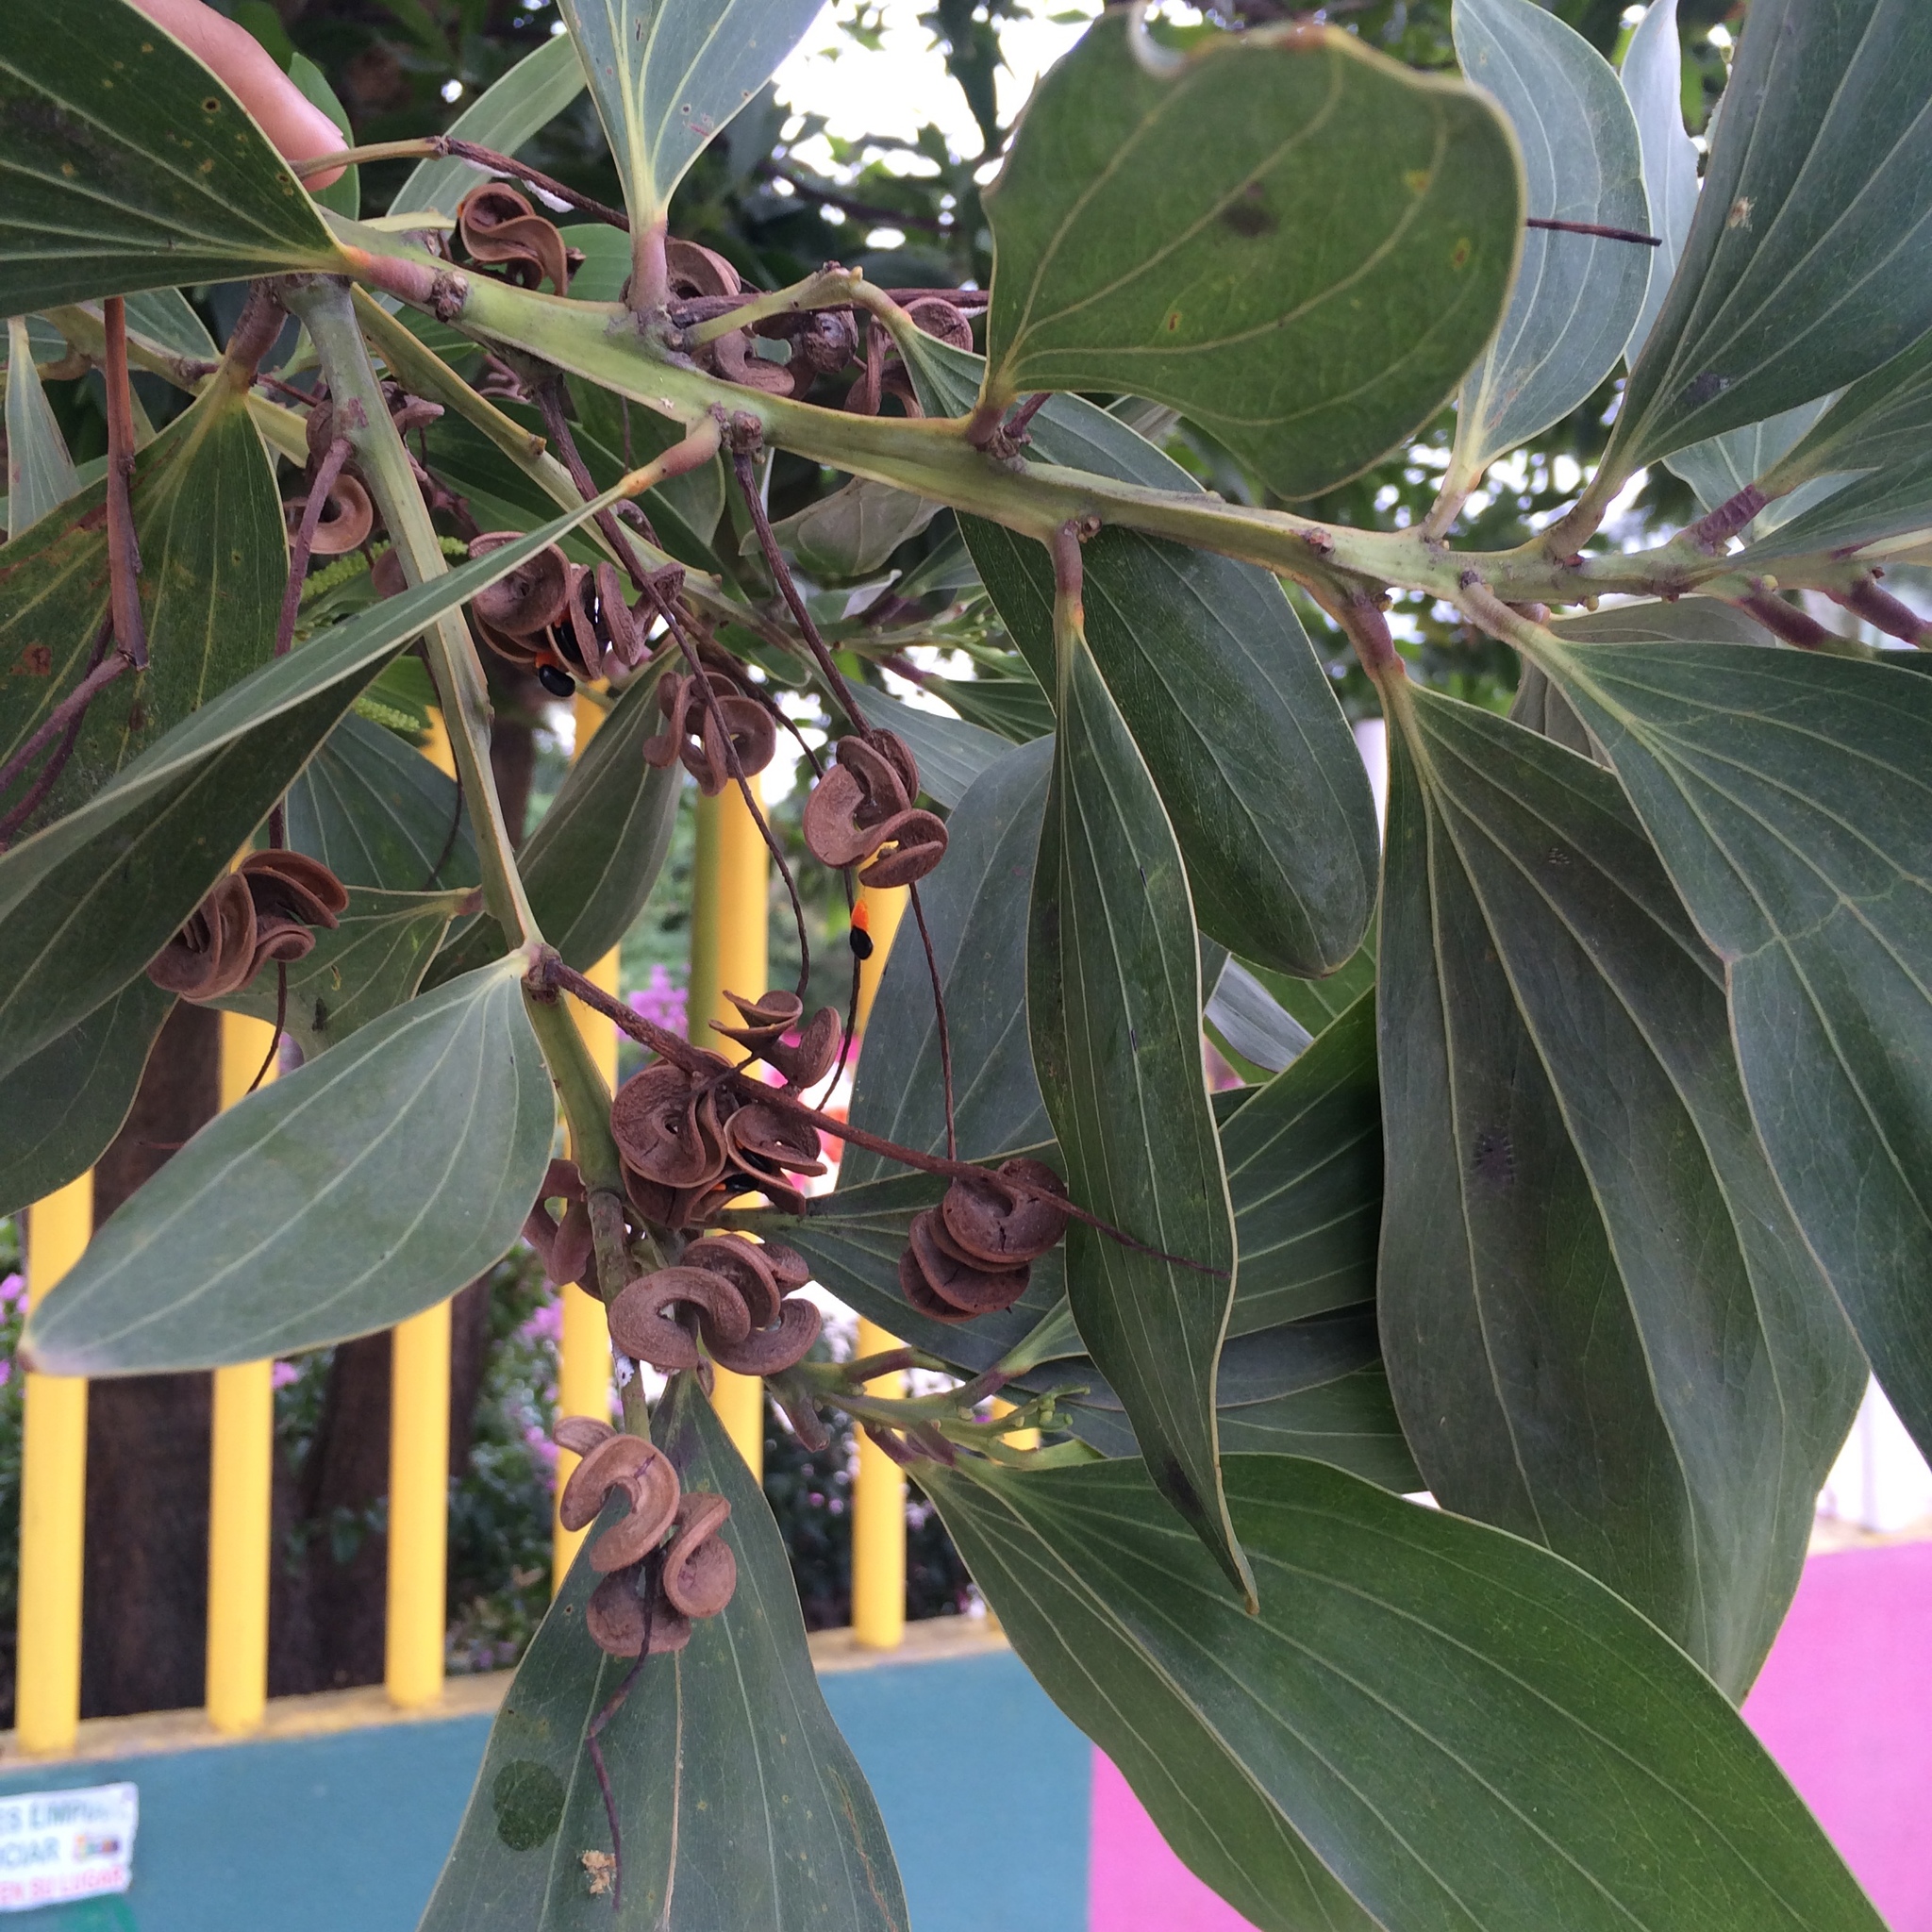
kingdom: Plantae
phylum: Tracheophyta
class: Magnoliopsida
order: Fabales
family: Fabaceae
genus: Acacia
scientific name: Acacia mangium
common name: Black wattle
